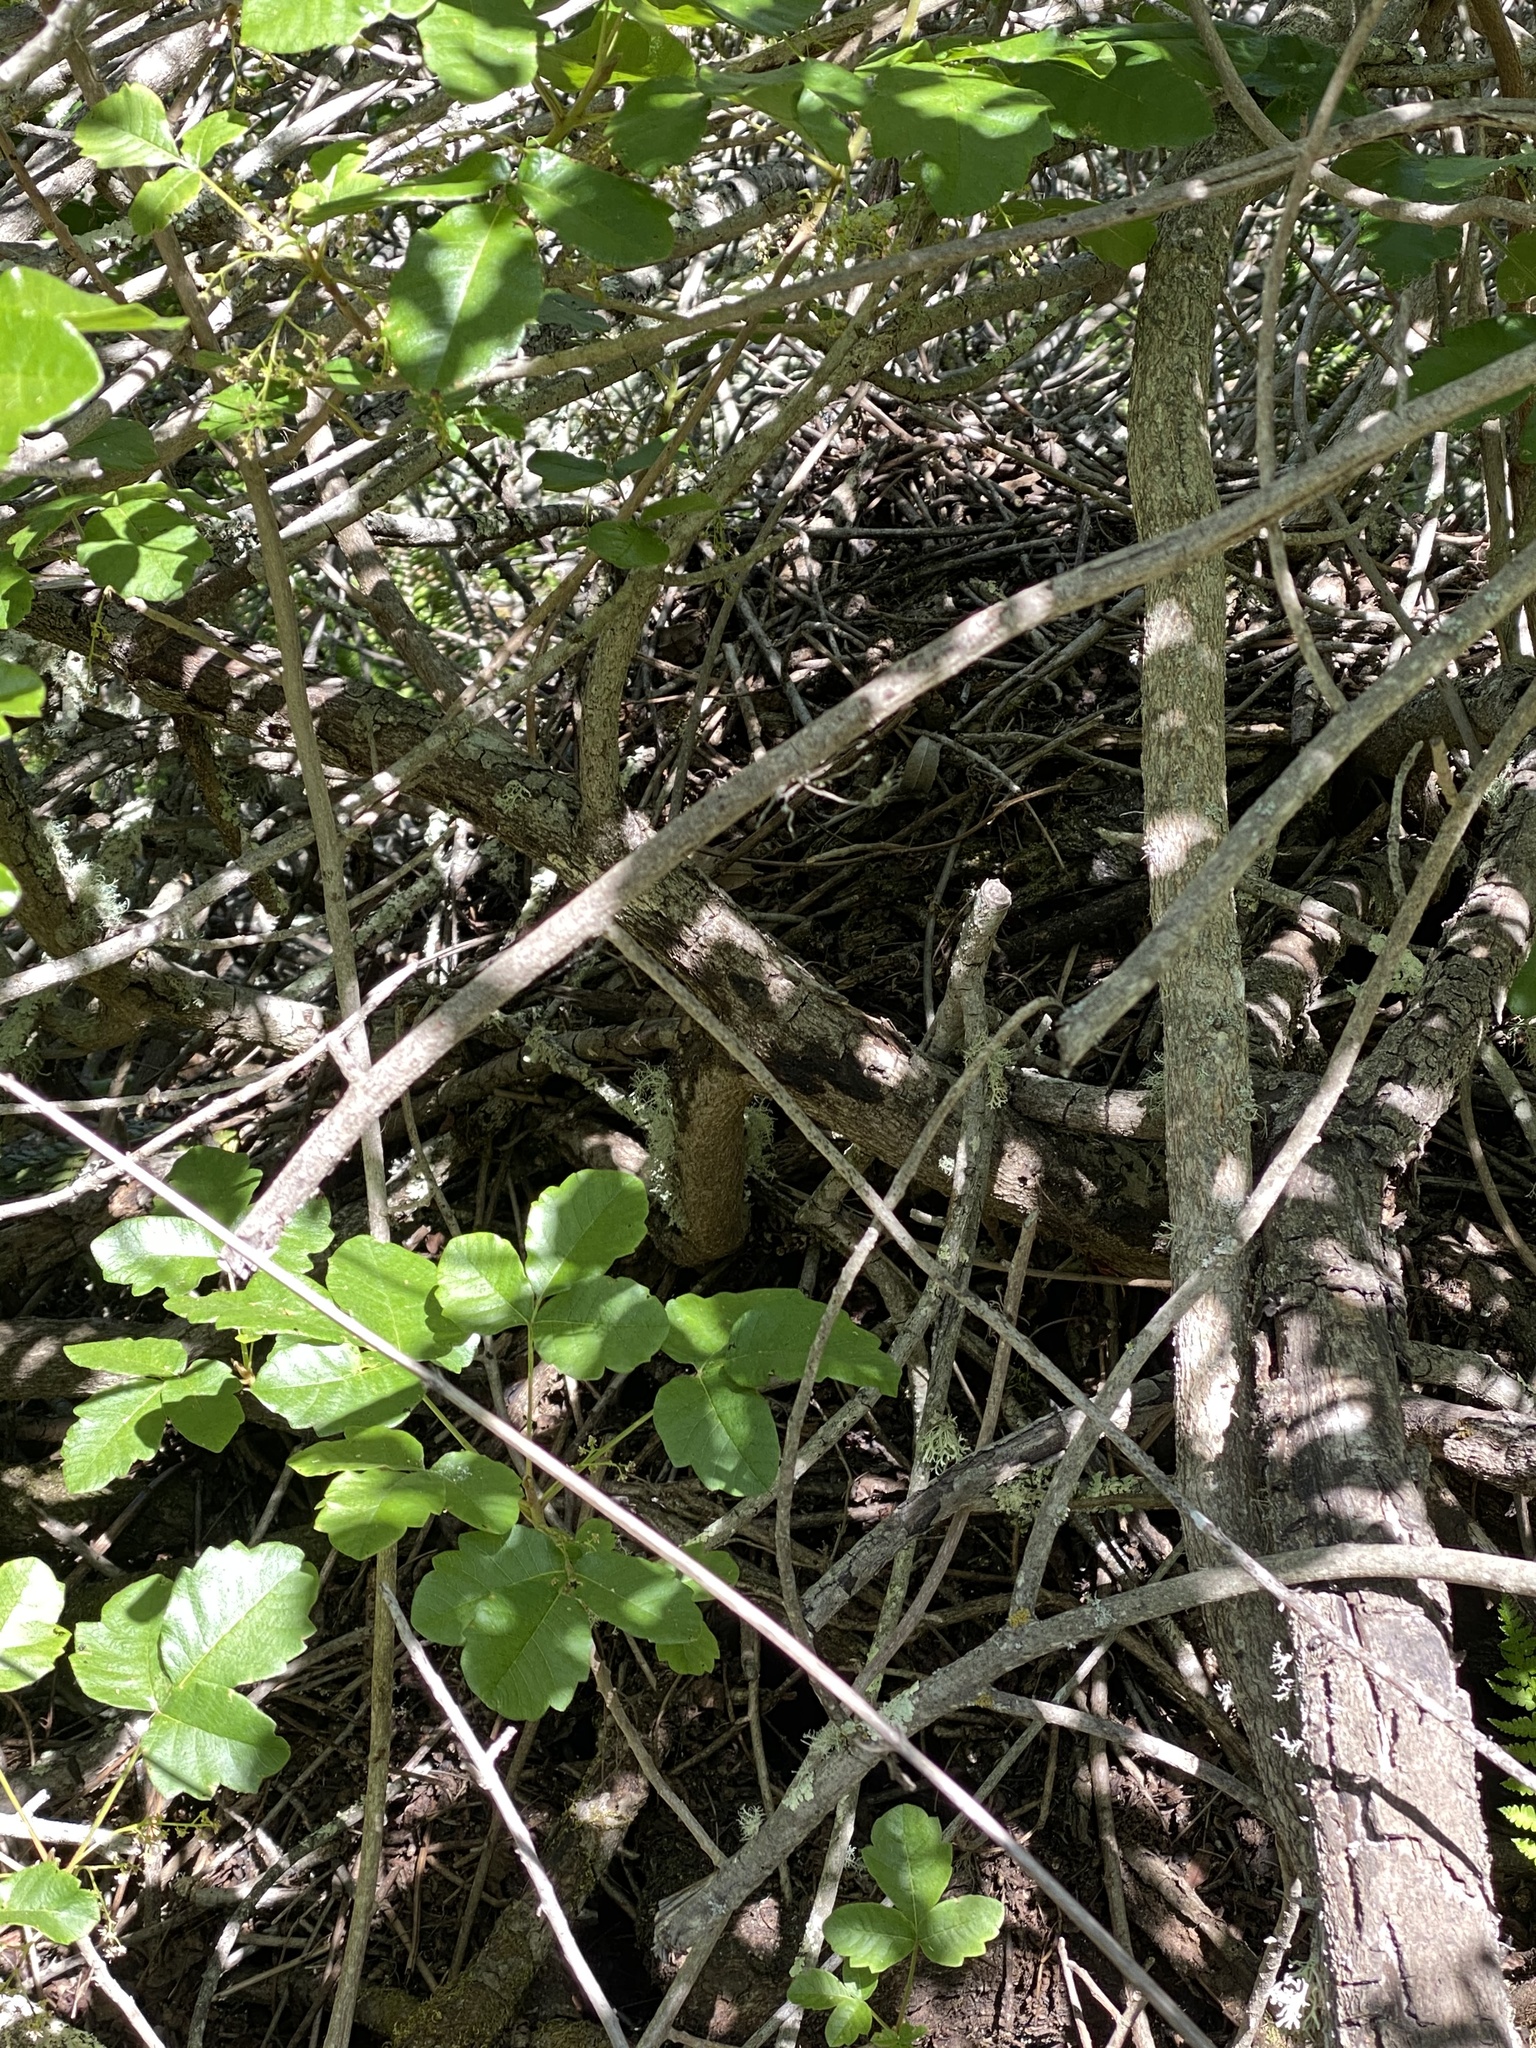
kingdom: Animalia
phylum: Chordata
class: Mammalia
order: Rodentia
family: Cricetidae
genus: Neotoma
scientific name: Neotoma fuscipes
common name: Dusky-footed woodrat
